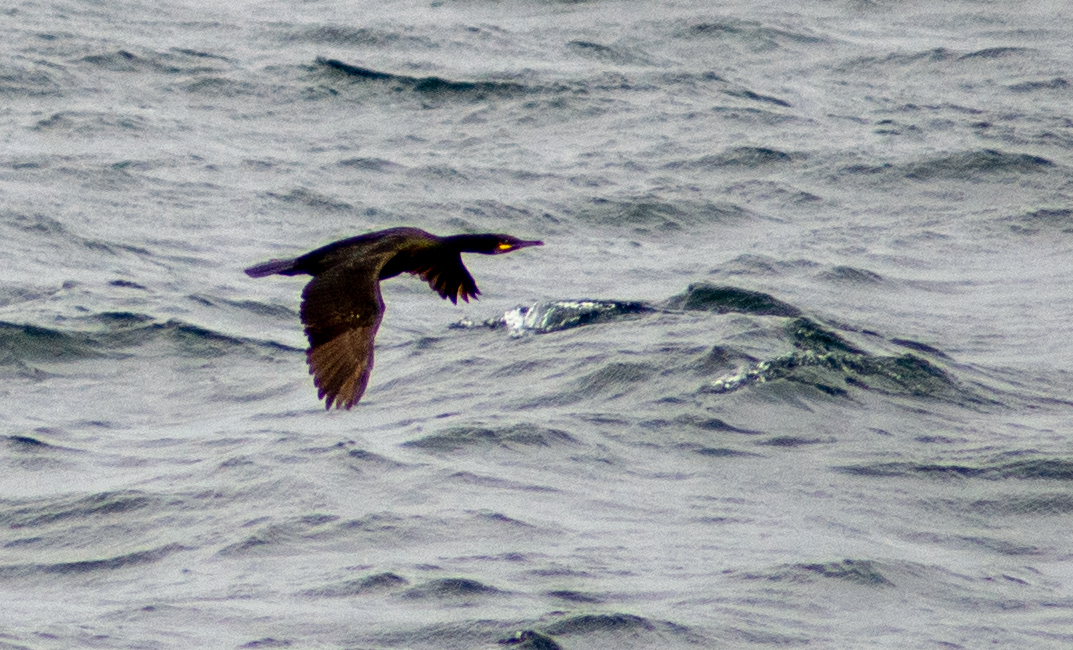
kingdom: Animalia
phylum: Chordata
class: Aves
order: Suliformes
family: Phalacrocoracidae
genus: Phalacrocorax
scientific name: Phalacrocorax aristotelis
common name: European shag
